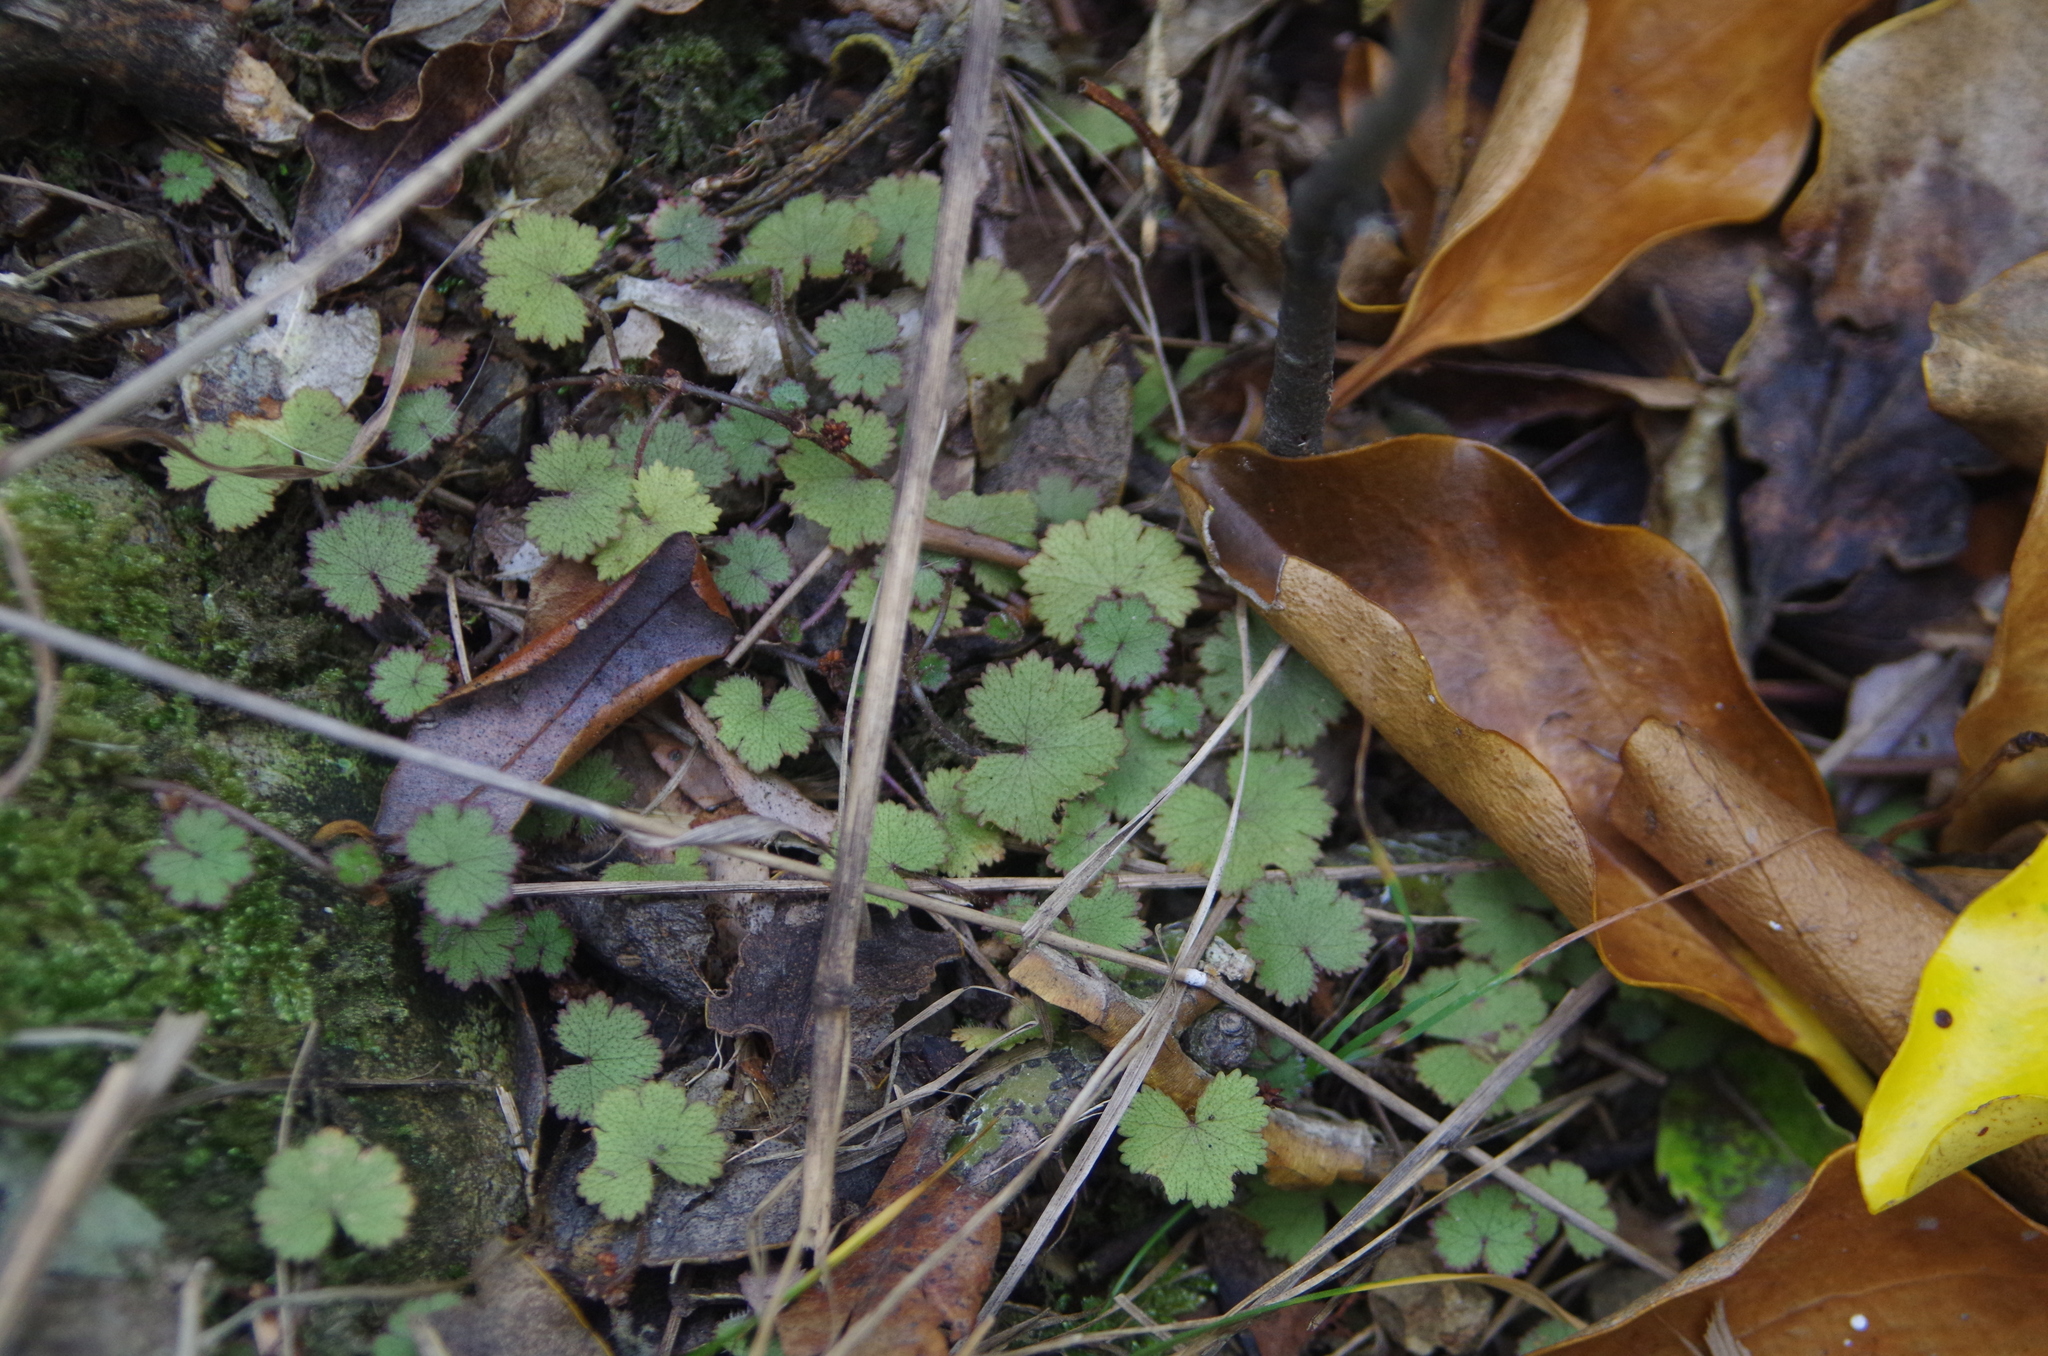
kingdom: Plantae
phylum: Tracheophyta
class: Magnoliopsida
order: Apiales
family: Araliaceae
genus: Hydrocotyle
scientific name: Hydrocotyle moschata
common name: Hairy pennywort
